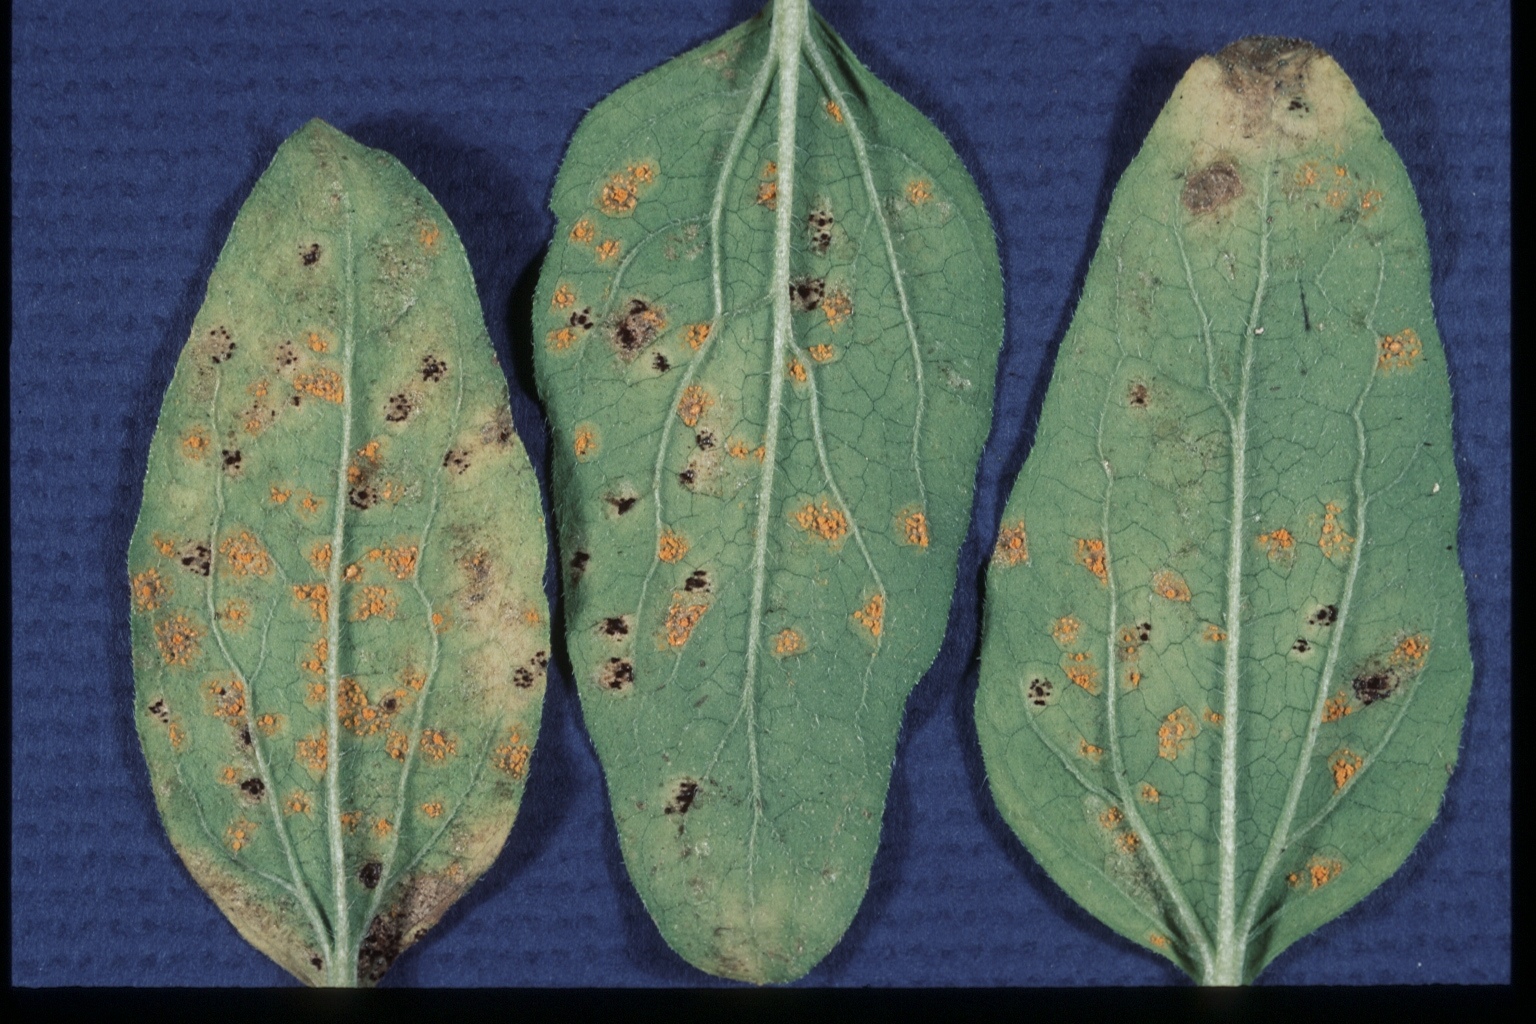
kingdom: Fungi
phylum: Basidiomycota
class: Pucciniomycetes
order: Pucciniales
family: Coleosporiaceae
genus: Coleosporium
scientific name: Coleosporium helianthi
